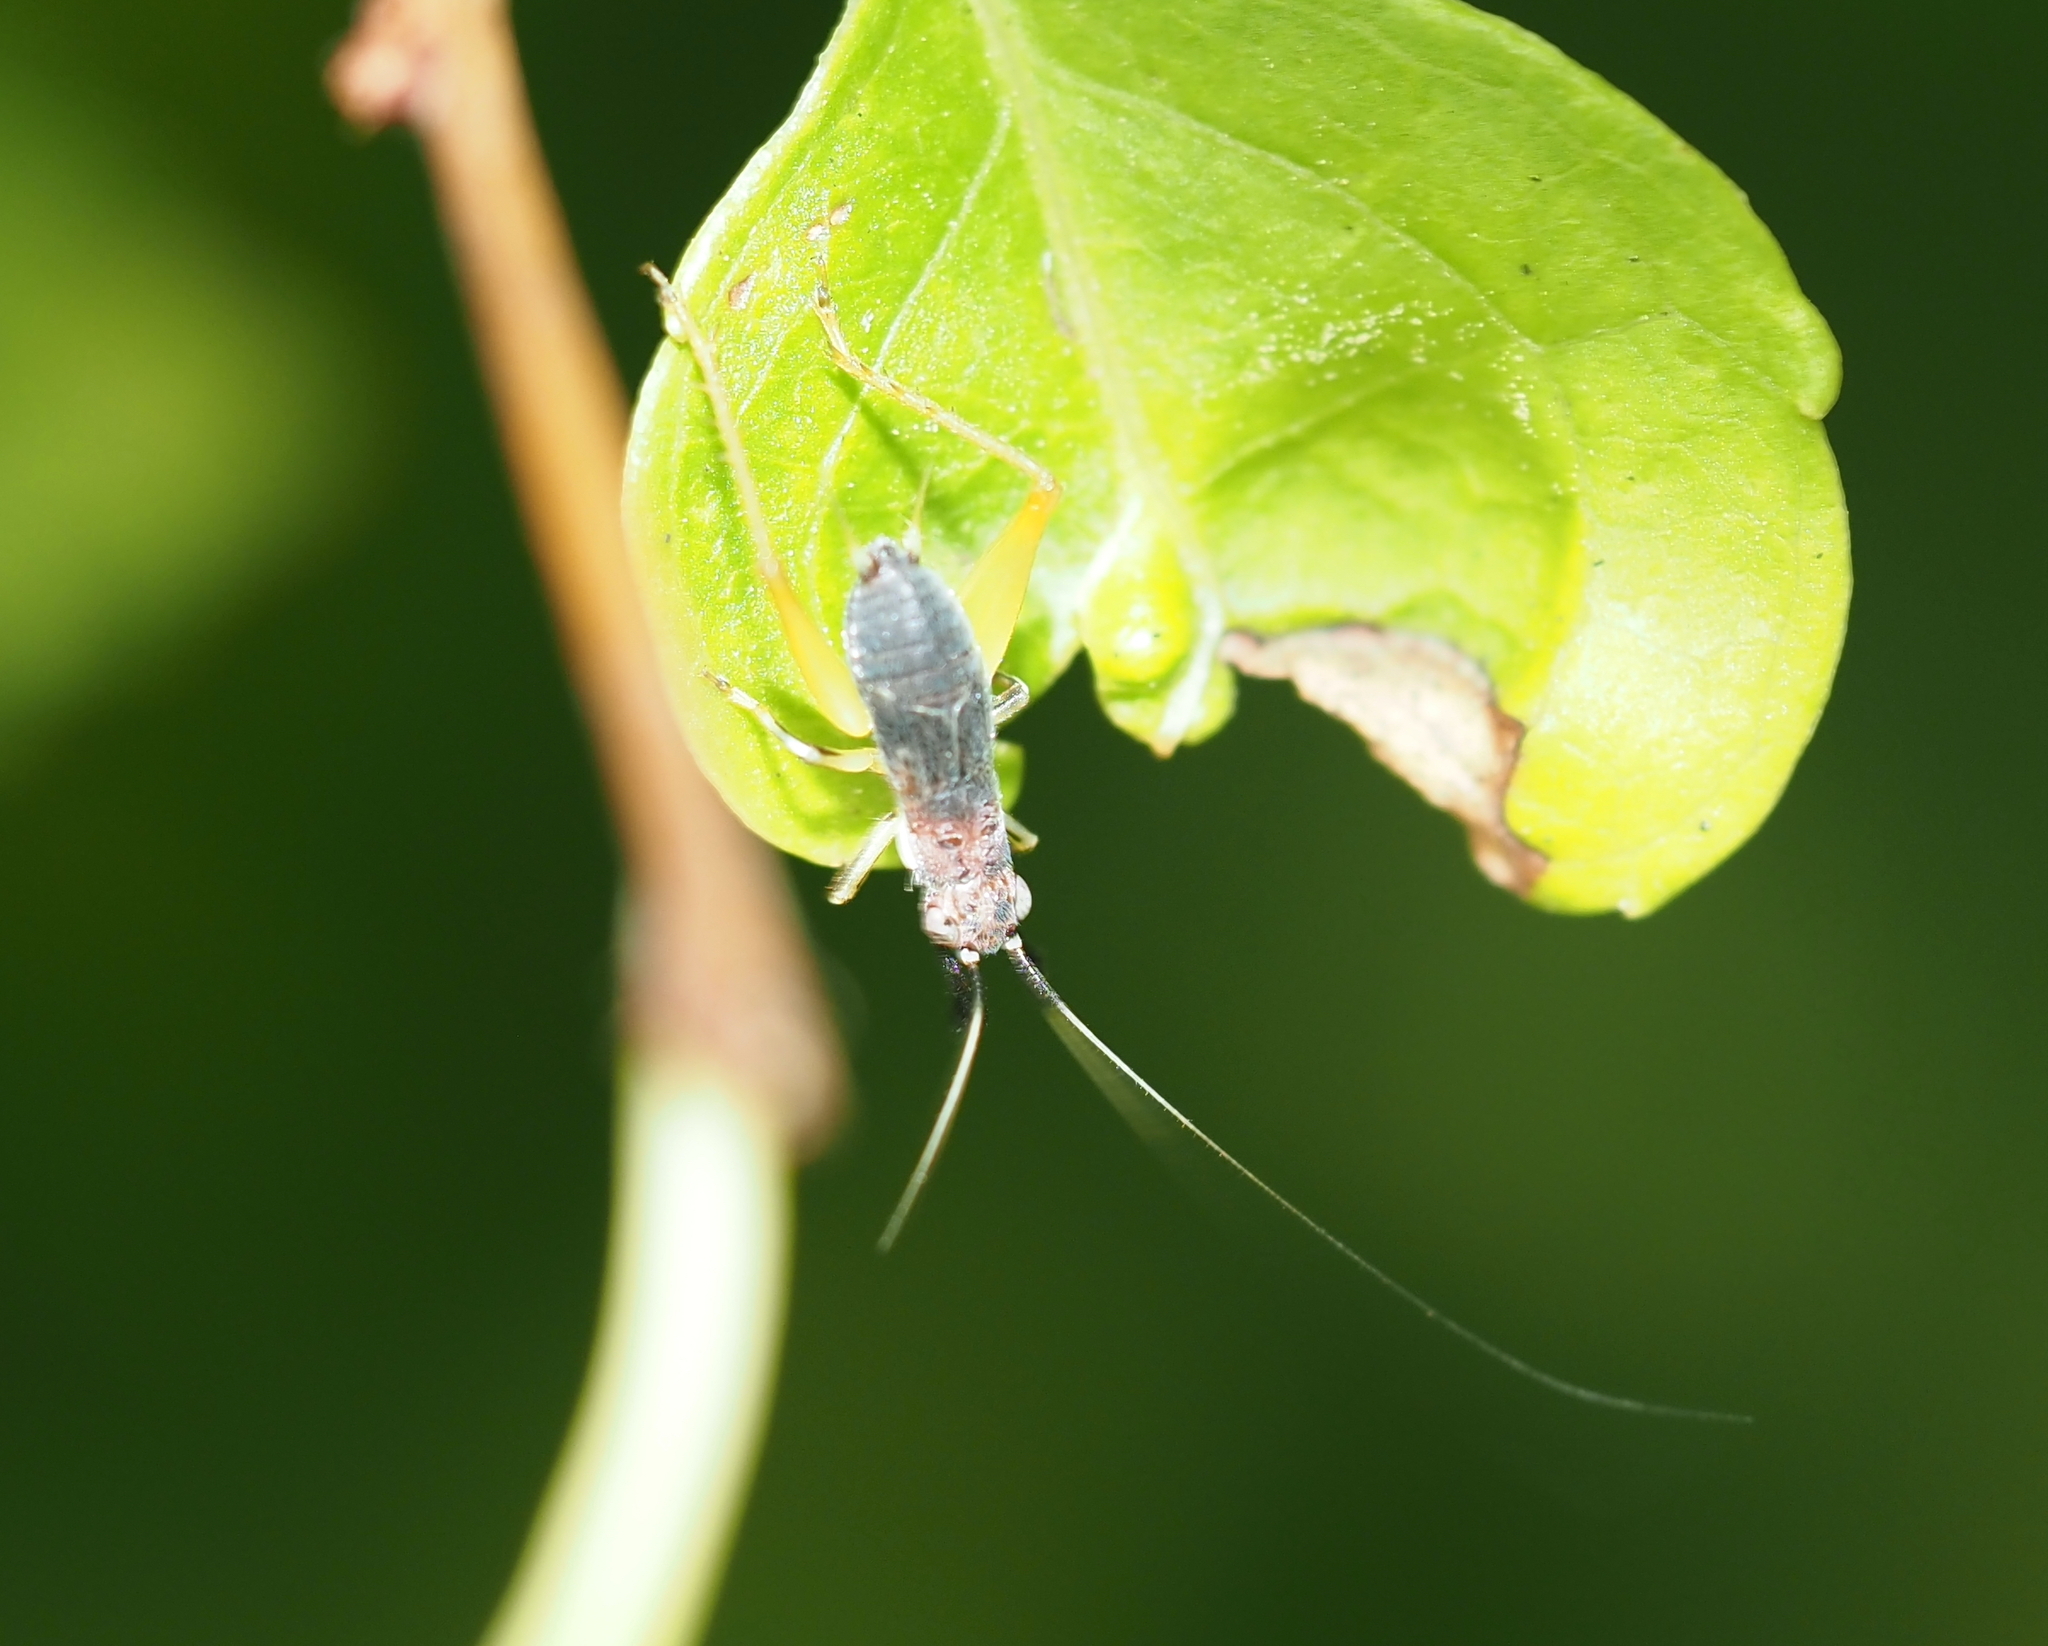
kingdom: Animalia
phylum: Arthropoda
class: Insecta
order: Orthoptera
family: Trigonidiidae
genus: Phyllopalpus
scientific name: Phyllopalpus pulchellus
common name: Handsome trig
